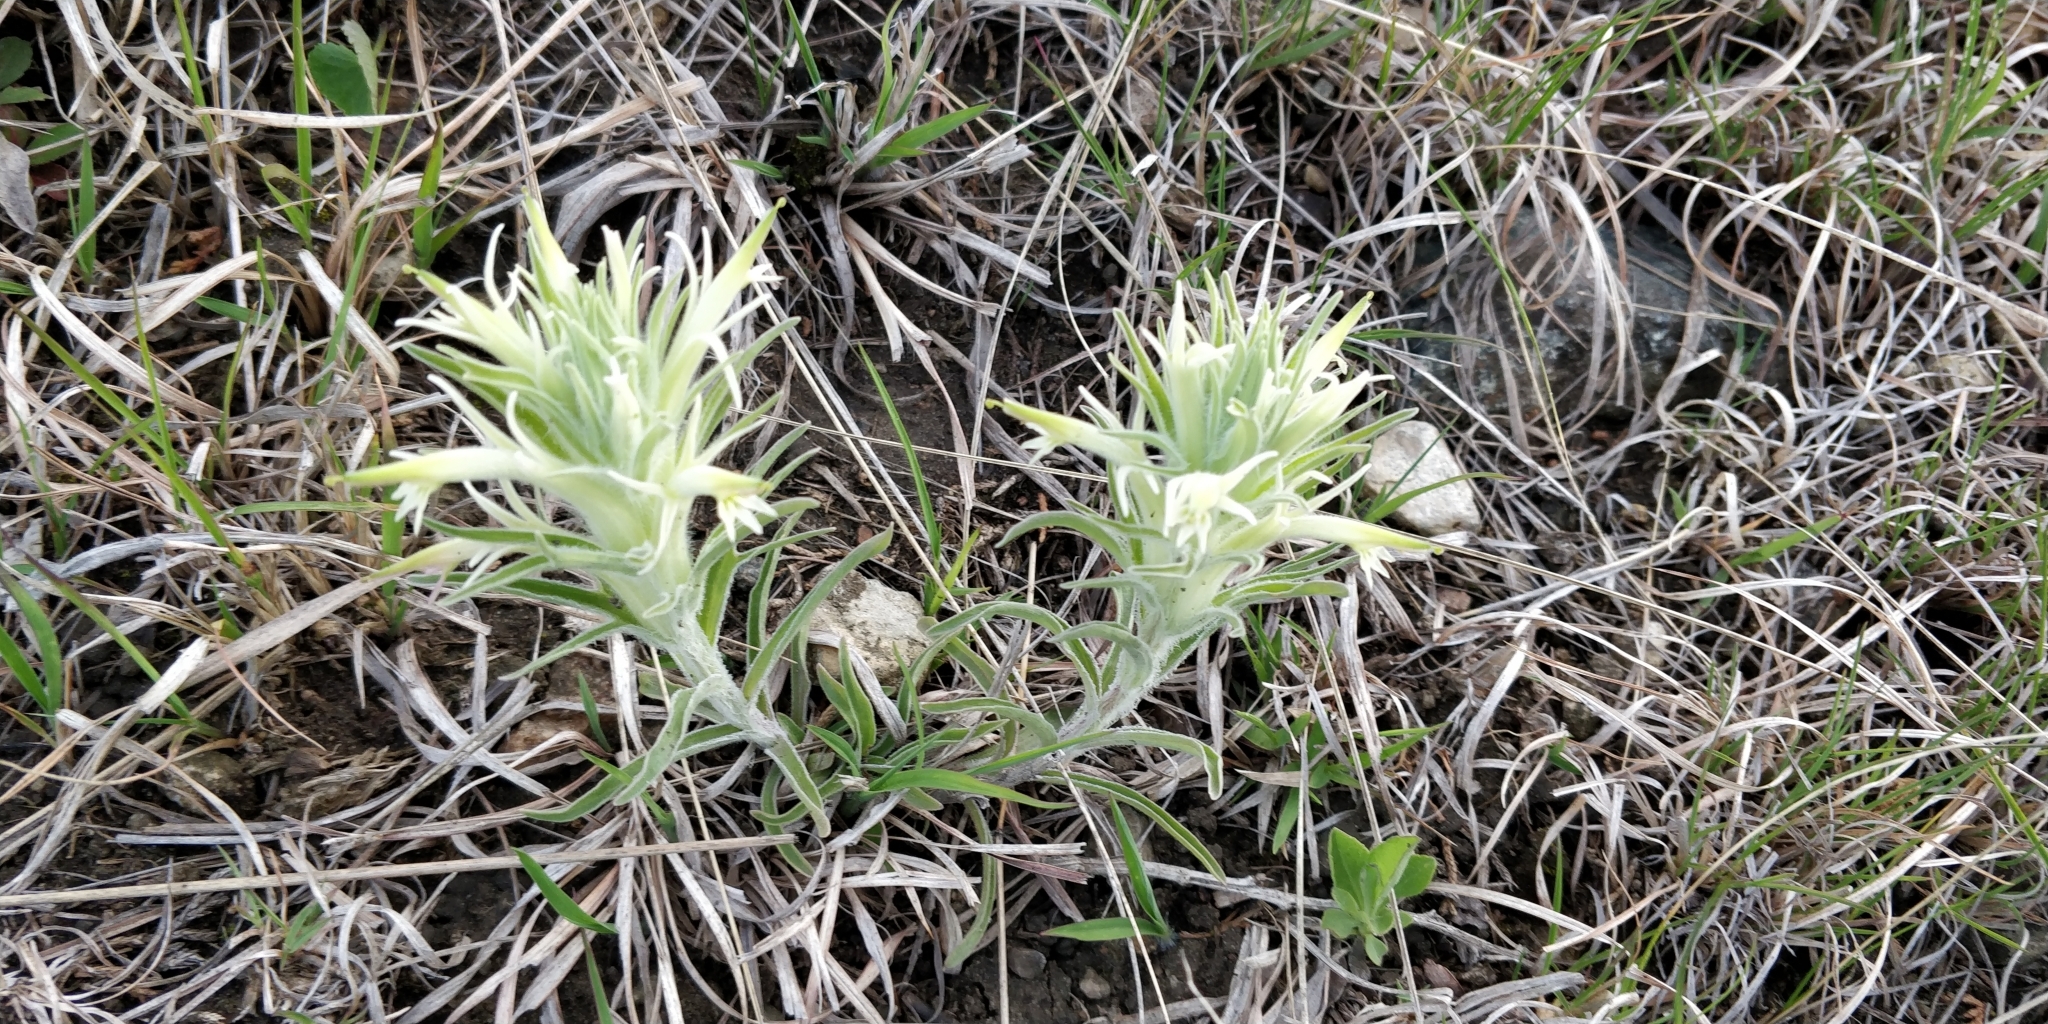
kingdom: Plantae
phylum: Tracheophyta
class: Magnoliopsida
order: Lamiales
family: Orobanchaceae
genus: Castilleja
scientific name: Castilleja sessiliflora
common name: Downy paintbrush
